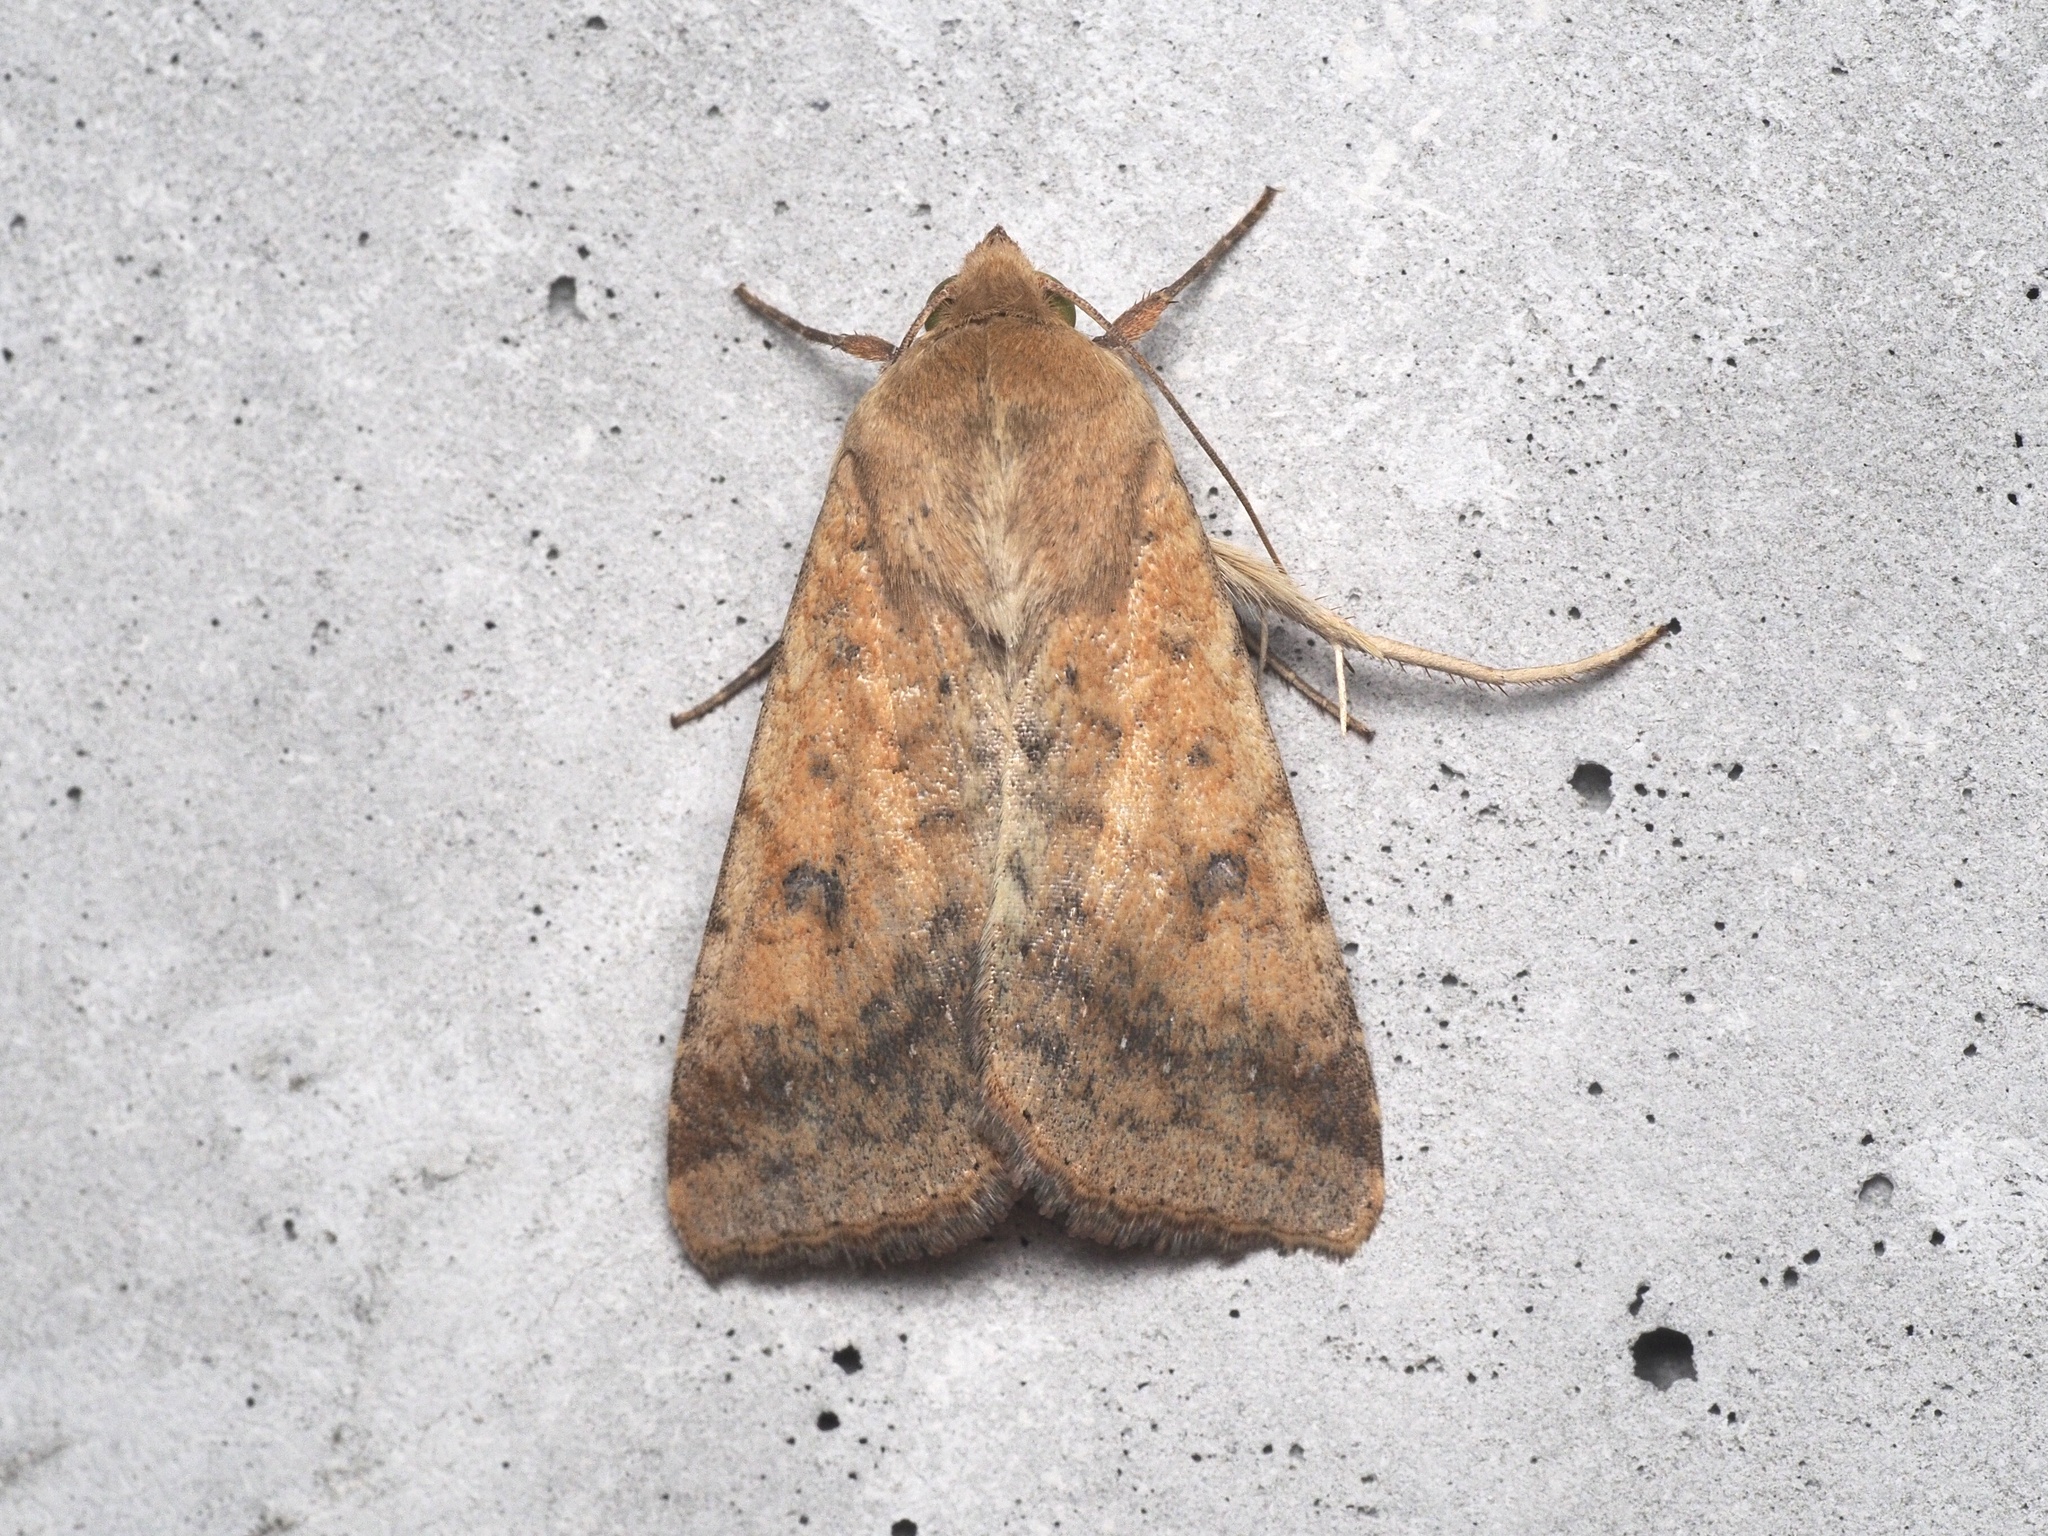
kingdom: Animalia
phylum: Arthropoda
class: Insecta
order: Lepidoptera
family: Noctuidae
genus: Helicoverpa
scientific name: Helicoverpa armigera
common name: Cotton bollworm
